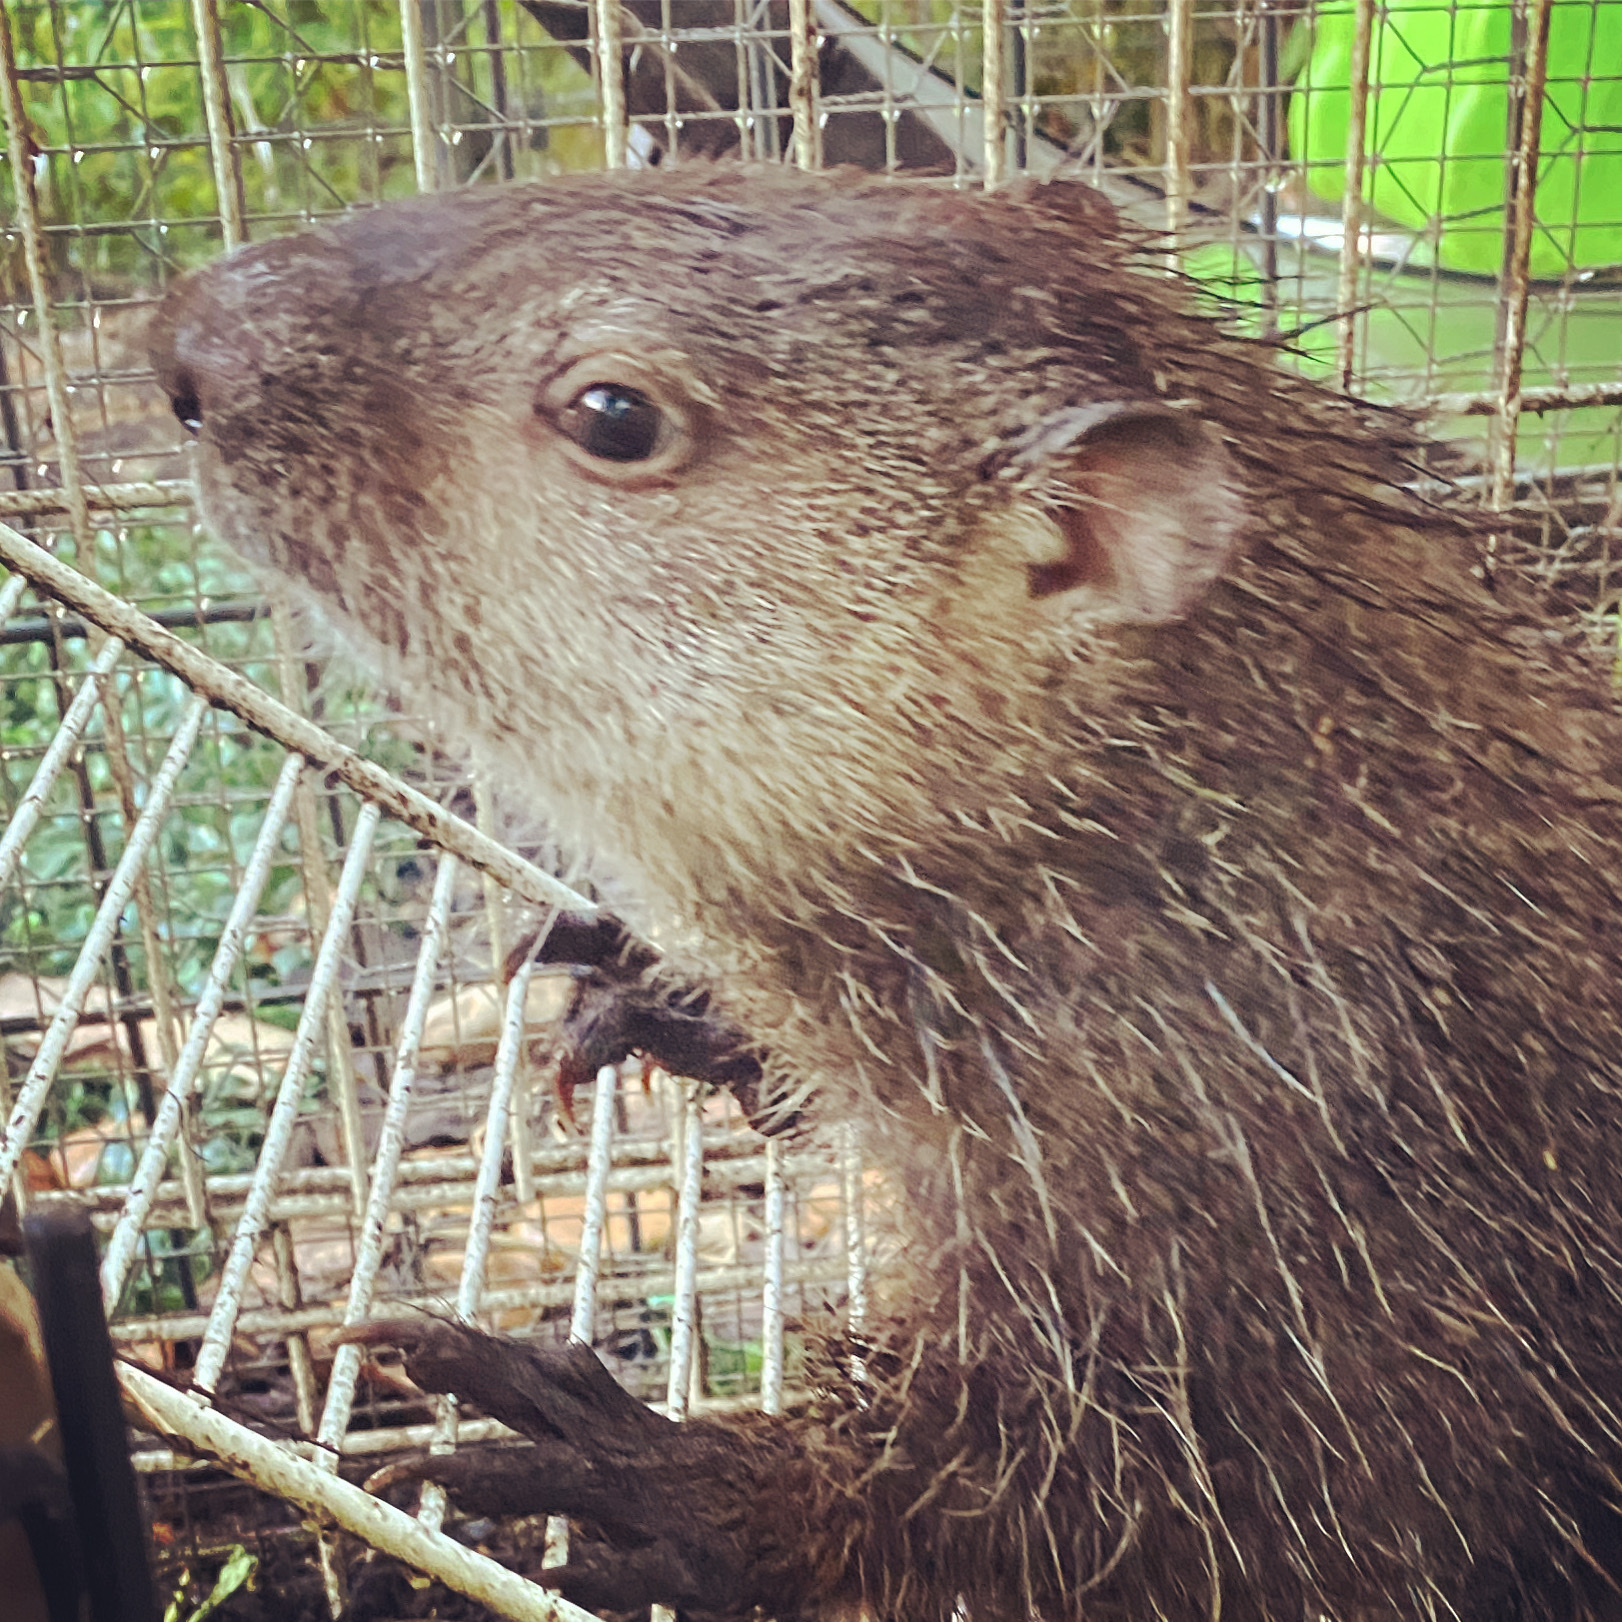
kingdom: Animalia
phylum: Chordata
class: Mammalia
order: Rodentia
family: Sciuridae
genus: Marmota
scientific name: Marmota monax
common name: Groundhog
